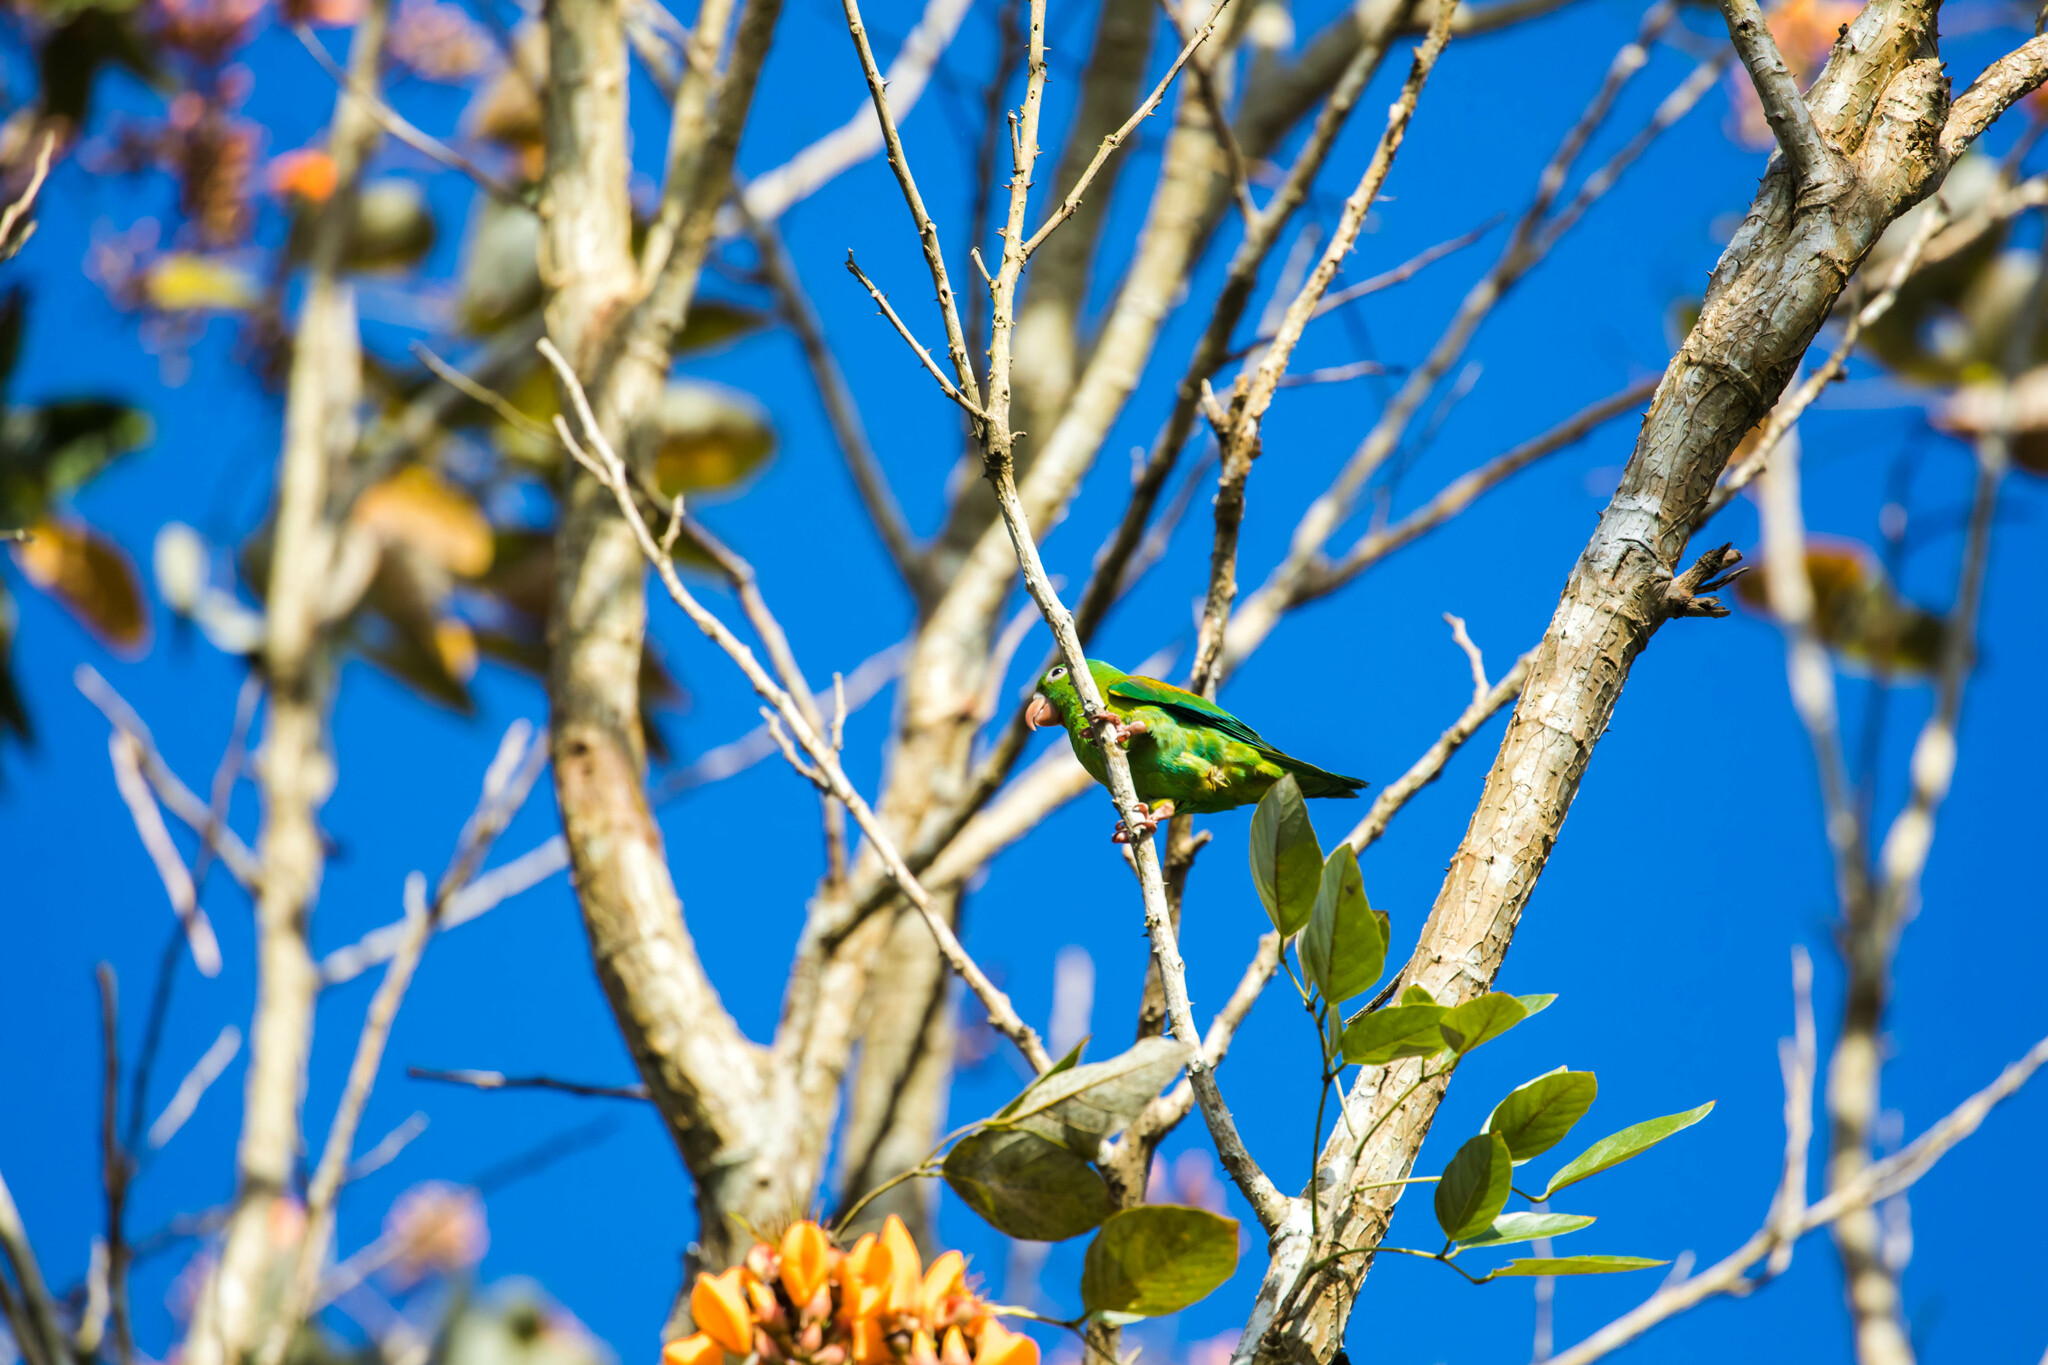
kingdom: Animalia
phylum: Chordata
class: Aves
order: Psittaciformes
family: Psittacidae
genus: Brotogeris
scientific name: Brotogeris jugularis
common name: Orange-chinned parakeet
